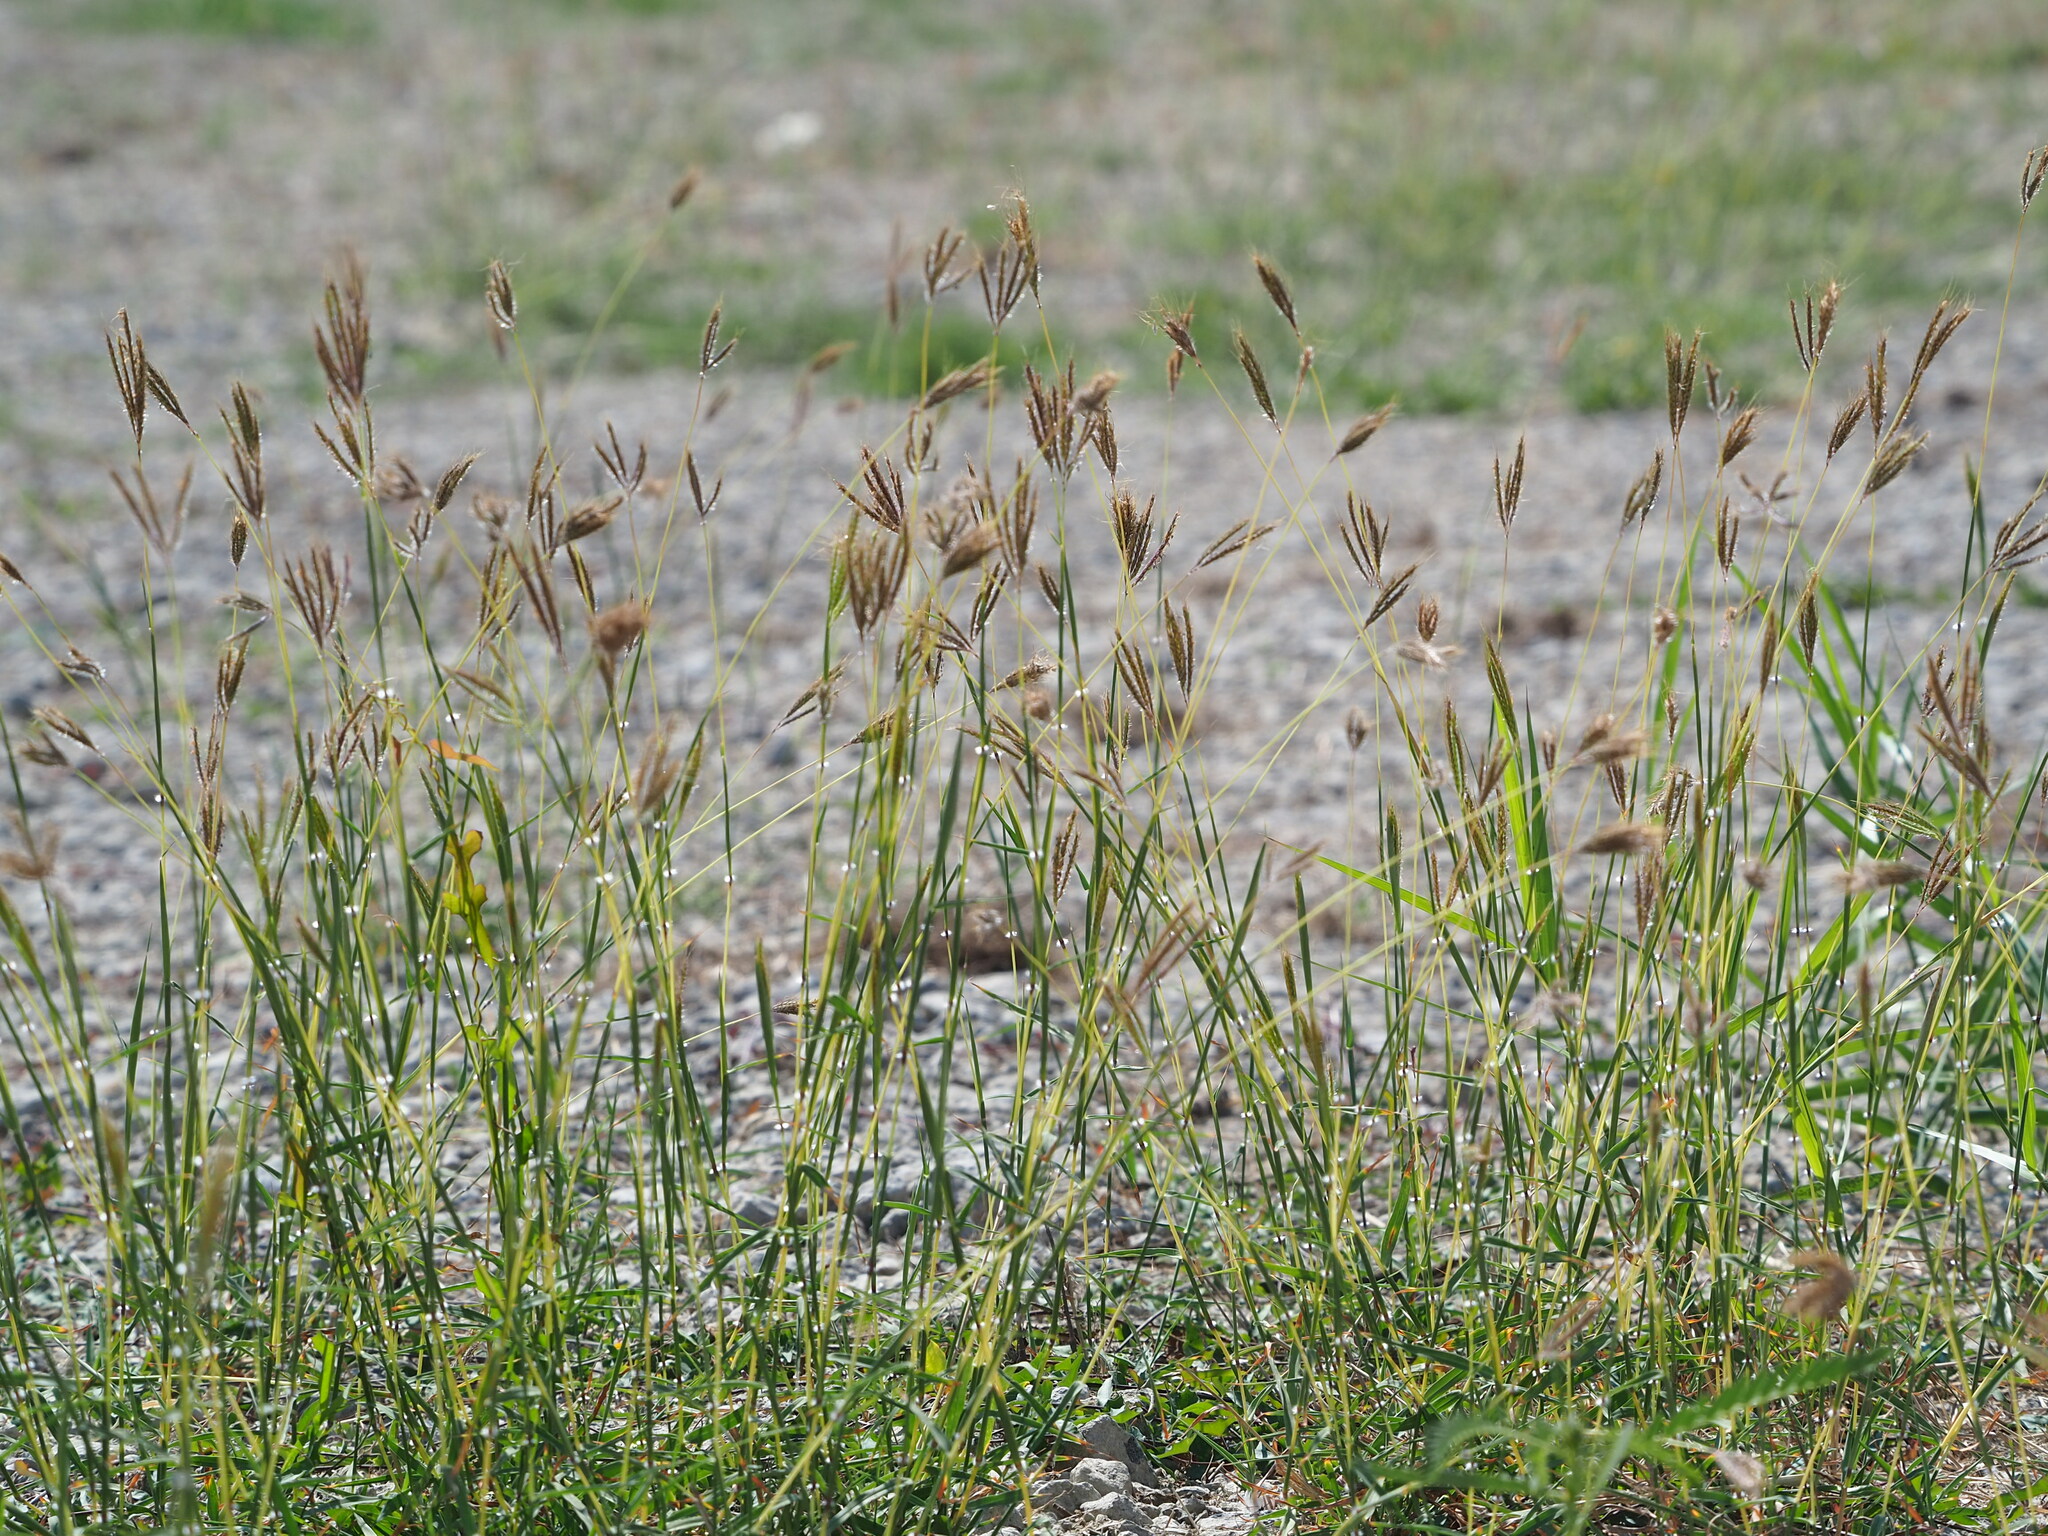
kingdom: Plantae
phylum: Tracheophyta
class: Liliopsida
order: Poales
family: Poaceae
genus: Dichanthium
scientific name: Dichanthium annulatum
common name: Kleberg's bluestem
